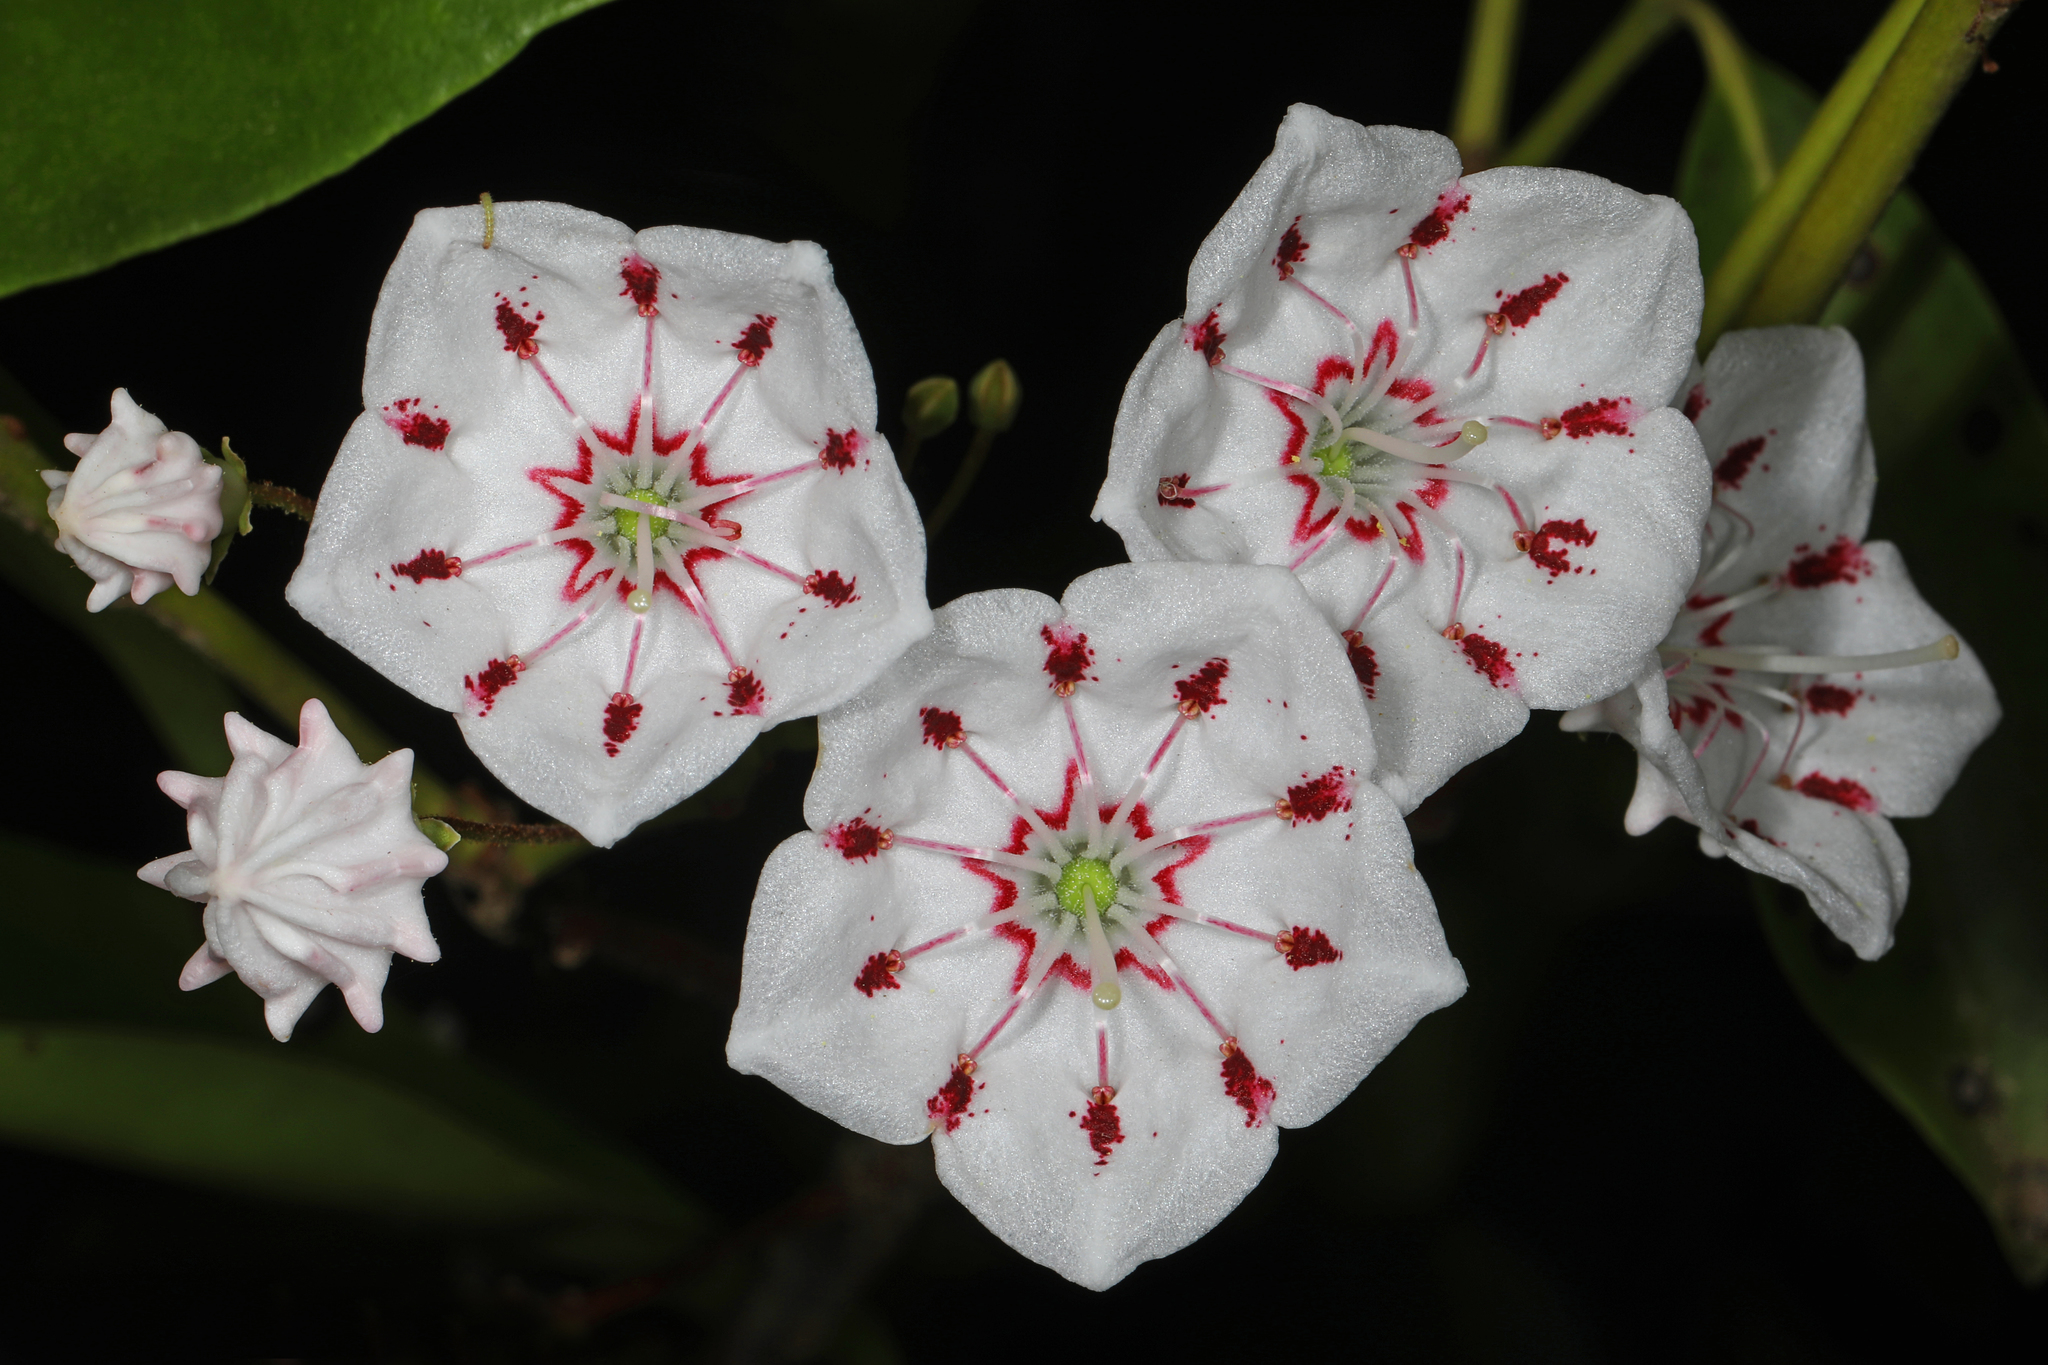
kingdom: Plantae
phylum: Tracheophyta
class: Magnoliopsida
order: Ericales
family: Ericaceae
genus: Kalmia
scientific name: Kalmia latifolia
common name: Mountain-laurel
